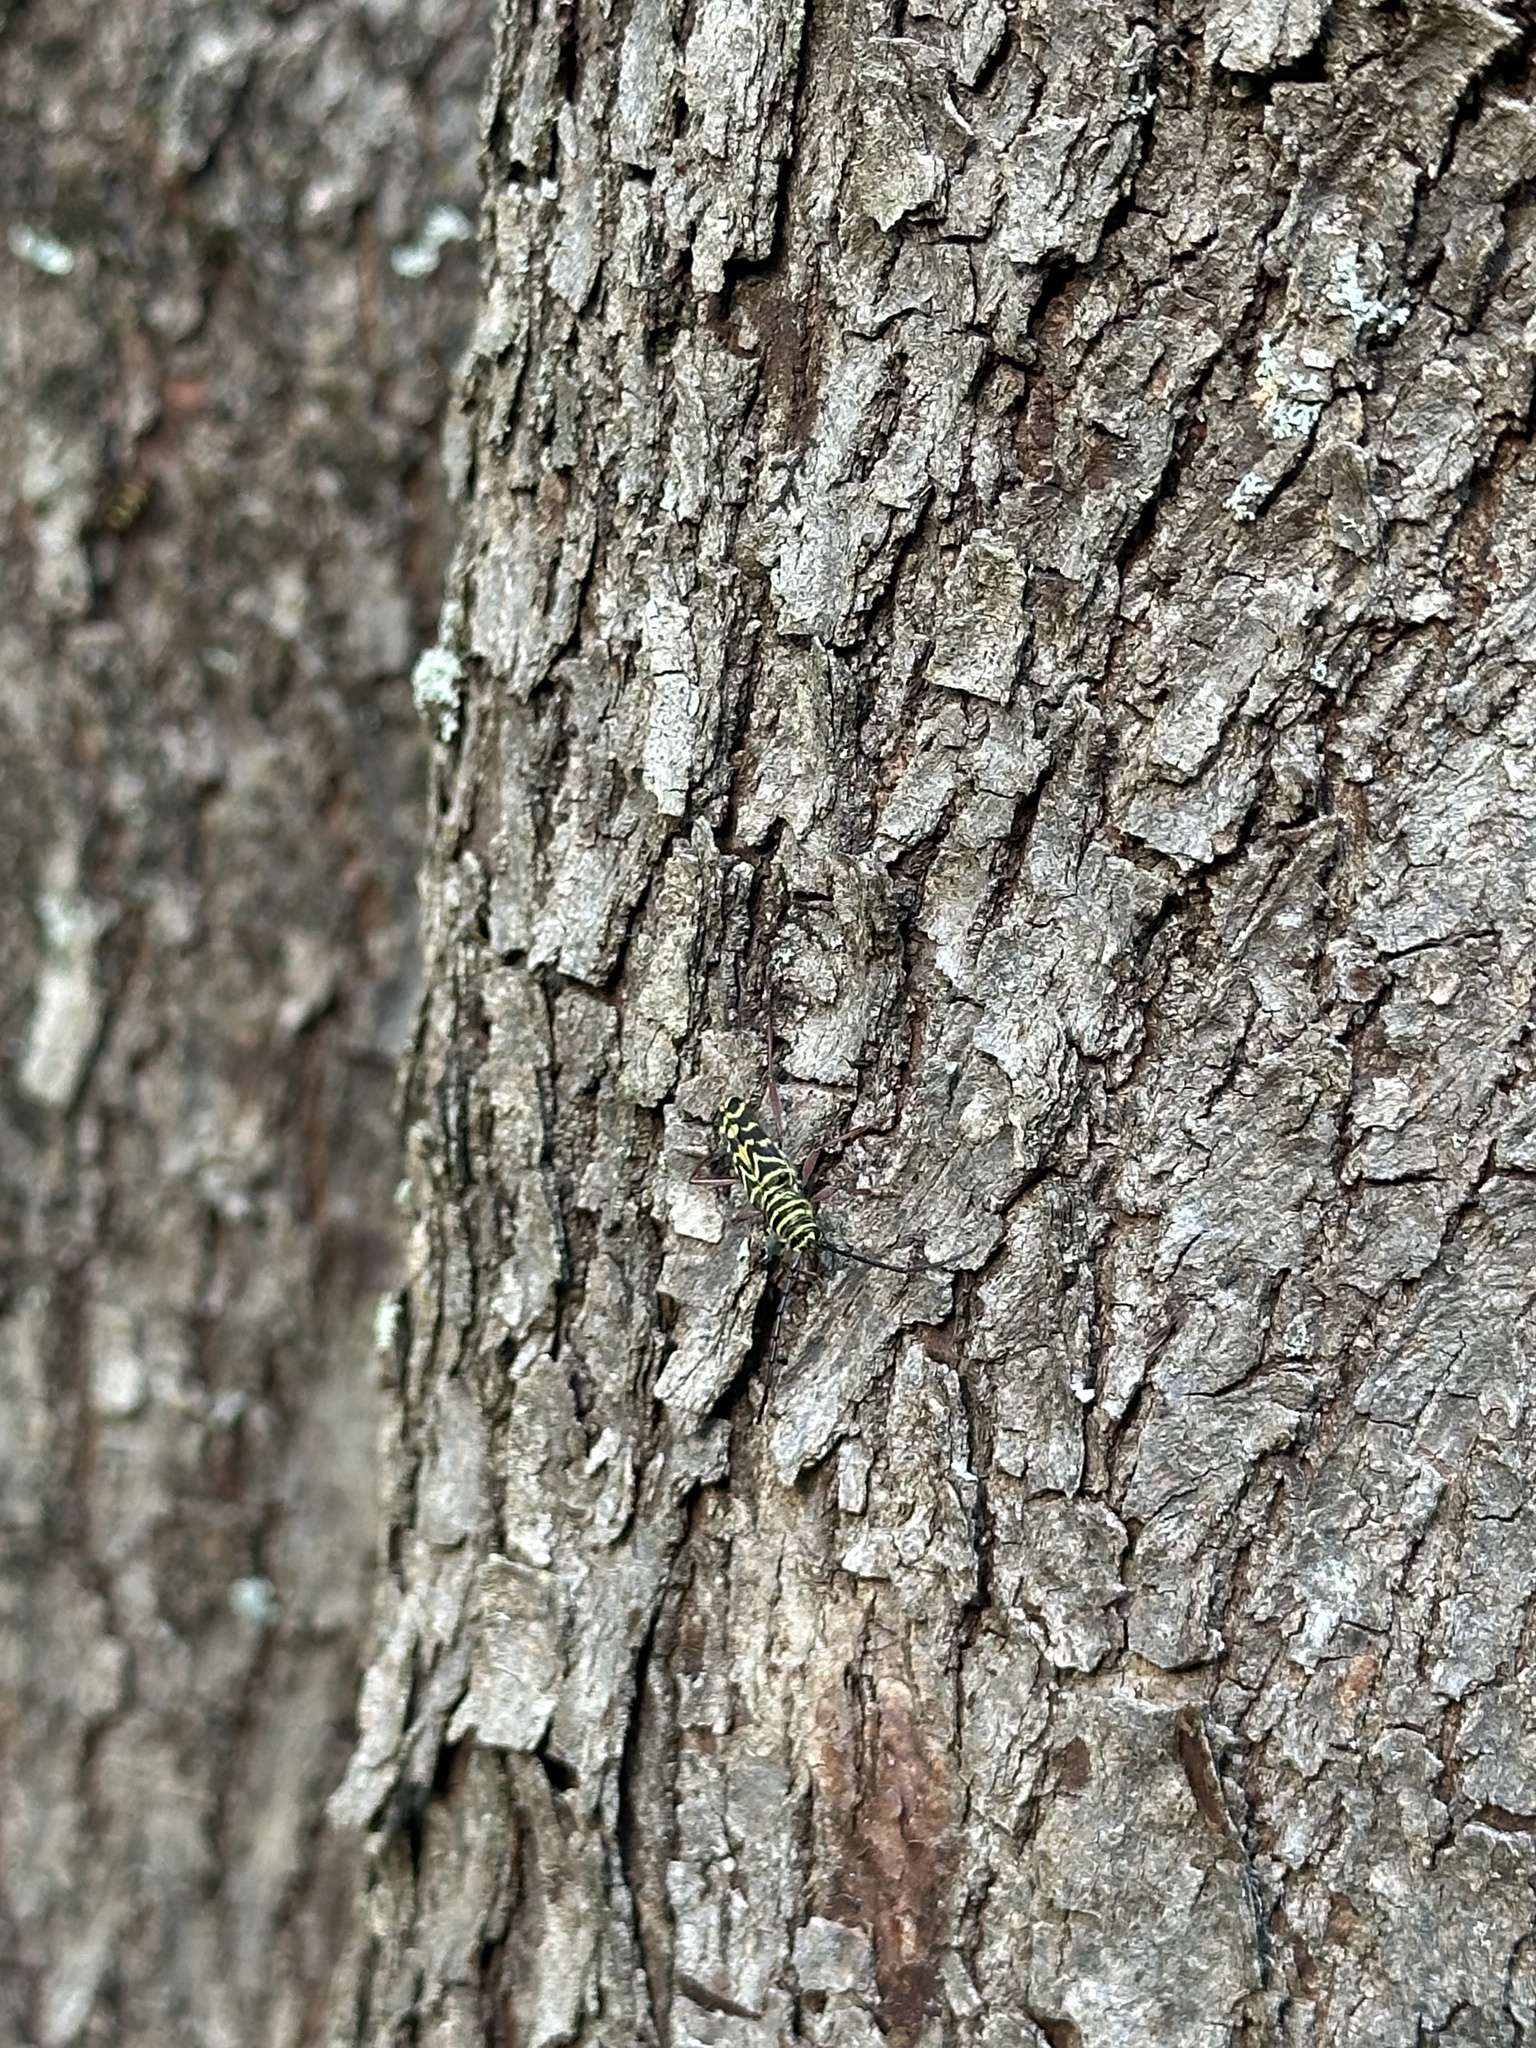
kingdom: Animalia
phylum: Arthropoda
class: Insecta
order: Coleoptera
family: Cerambycidae
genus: Megacyllene
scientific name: Megacyllene caryae
